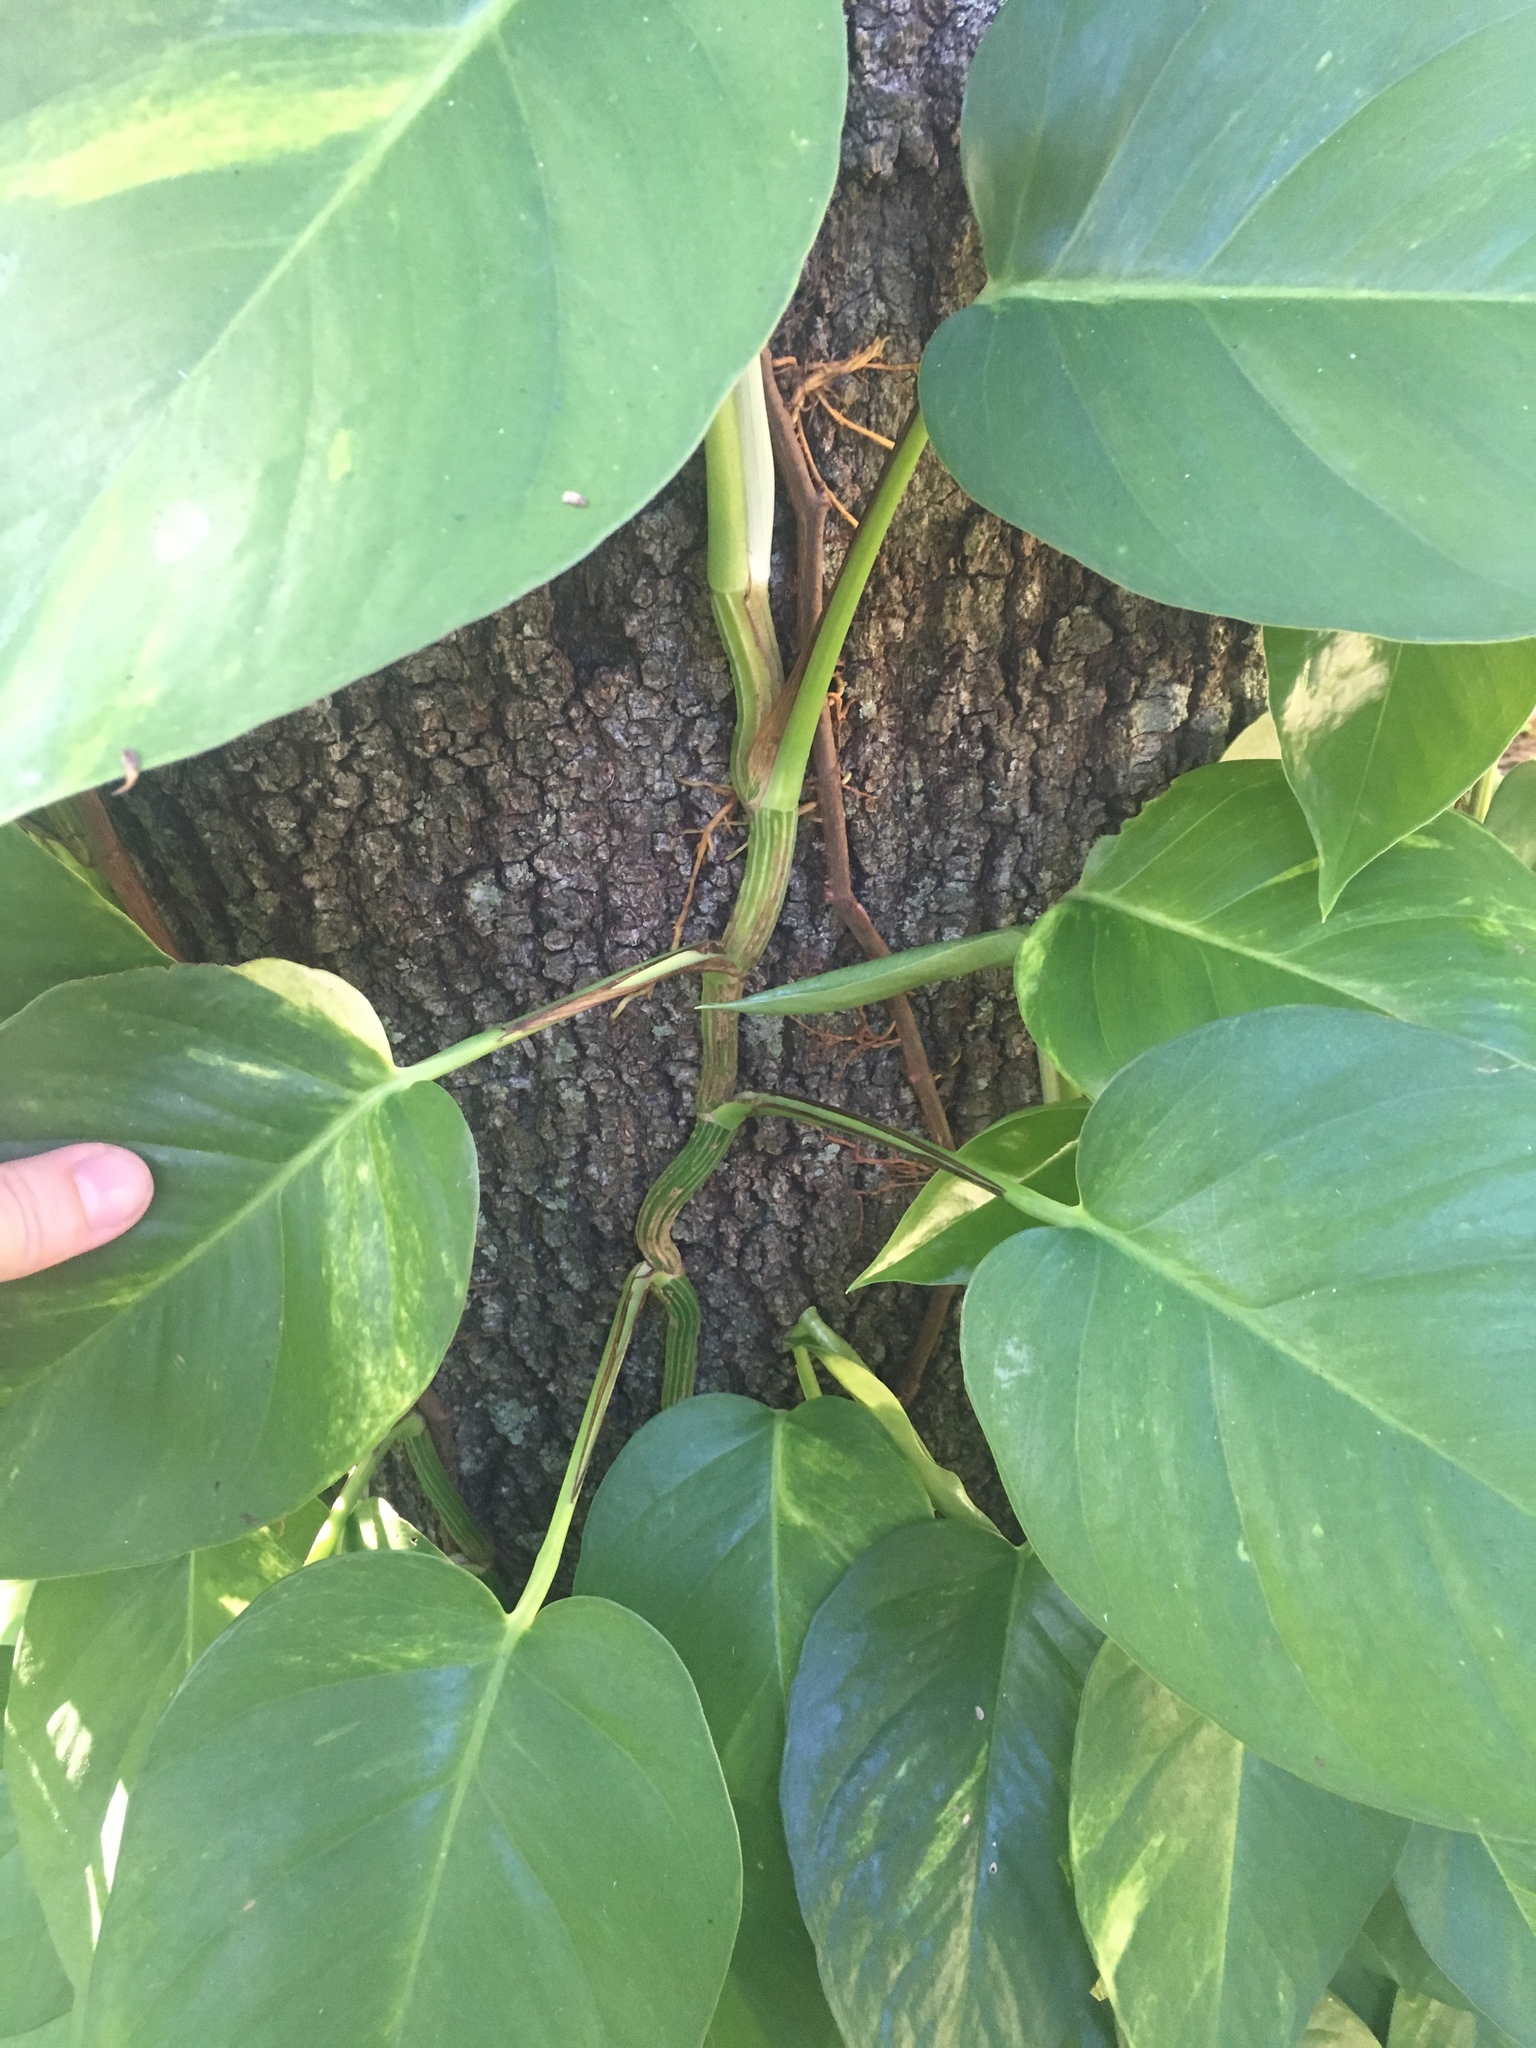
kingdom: Plantae
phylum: Tracheophyta
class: Liliopsida
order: Alismatales
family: Araceae
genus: Epipremnum
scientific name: Epipremnum aureum
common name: Golden hunter's-robe
